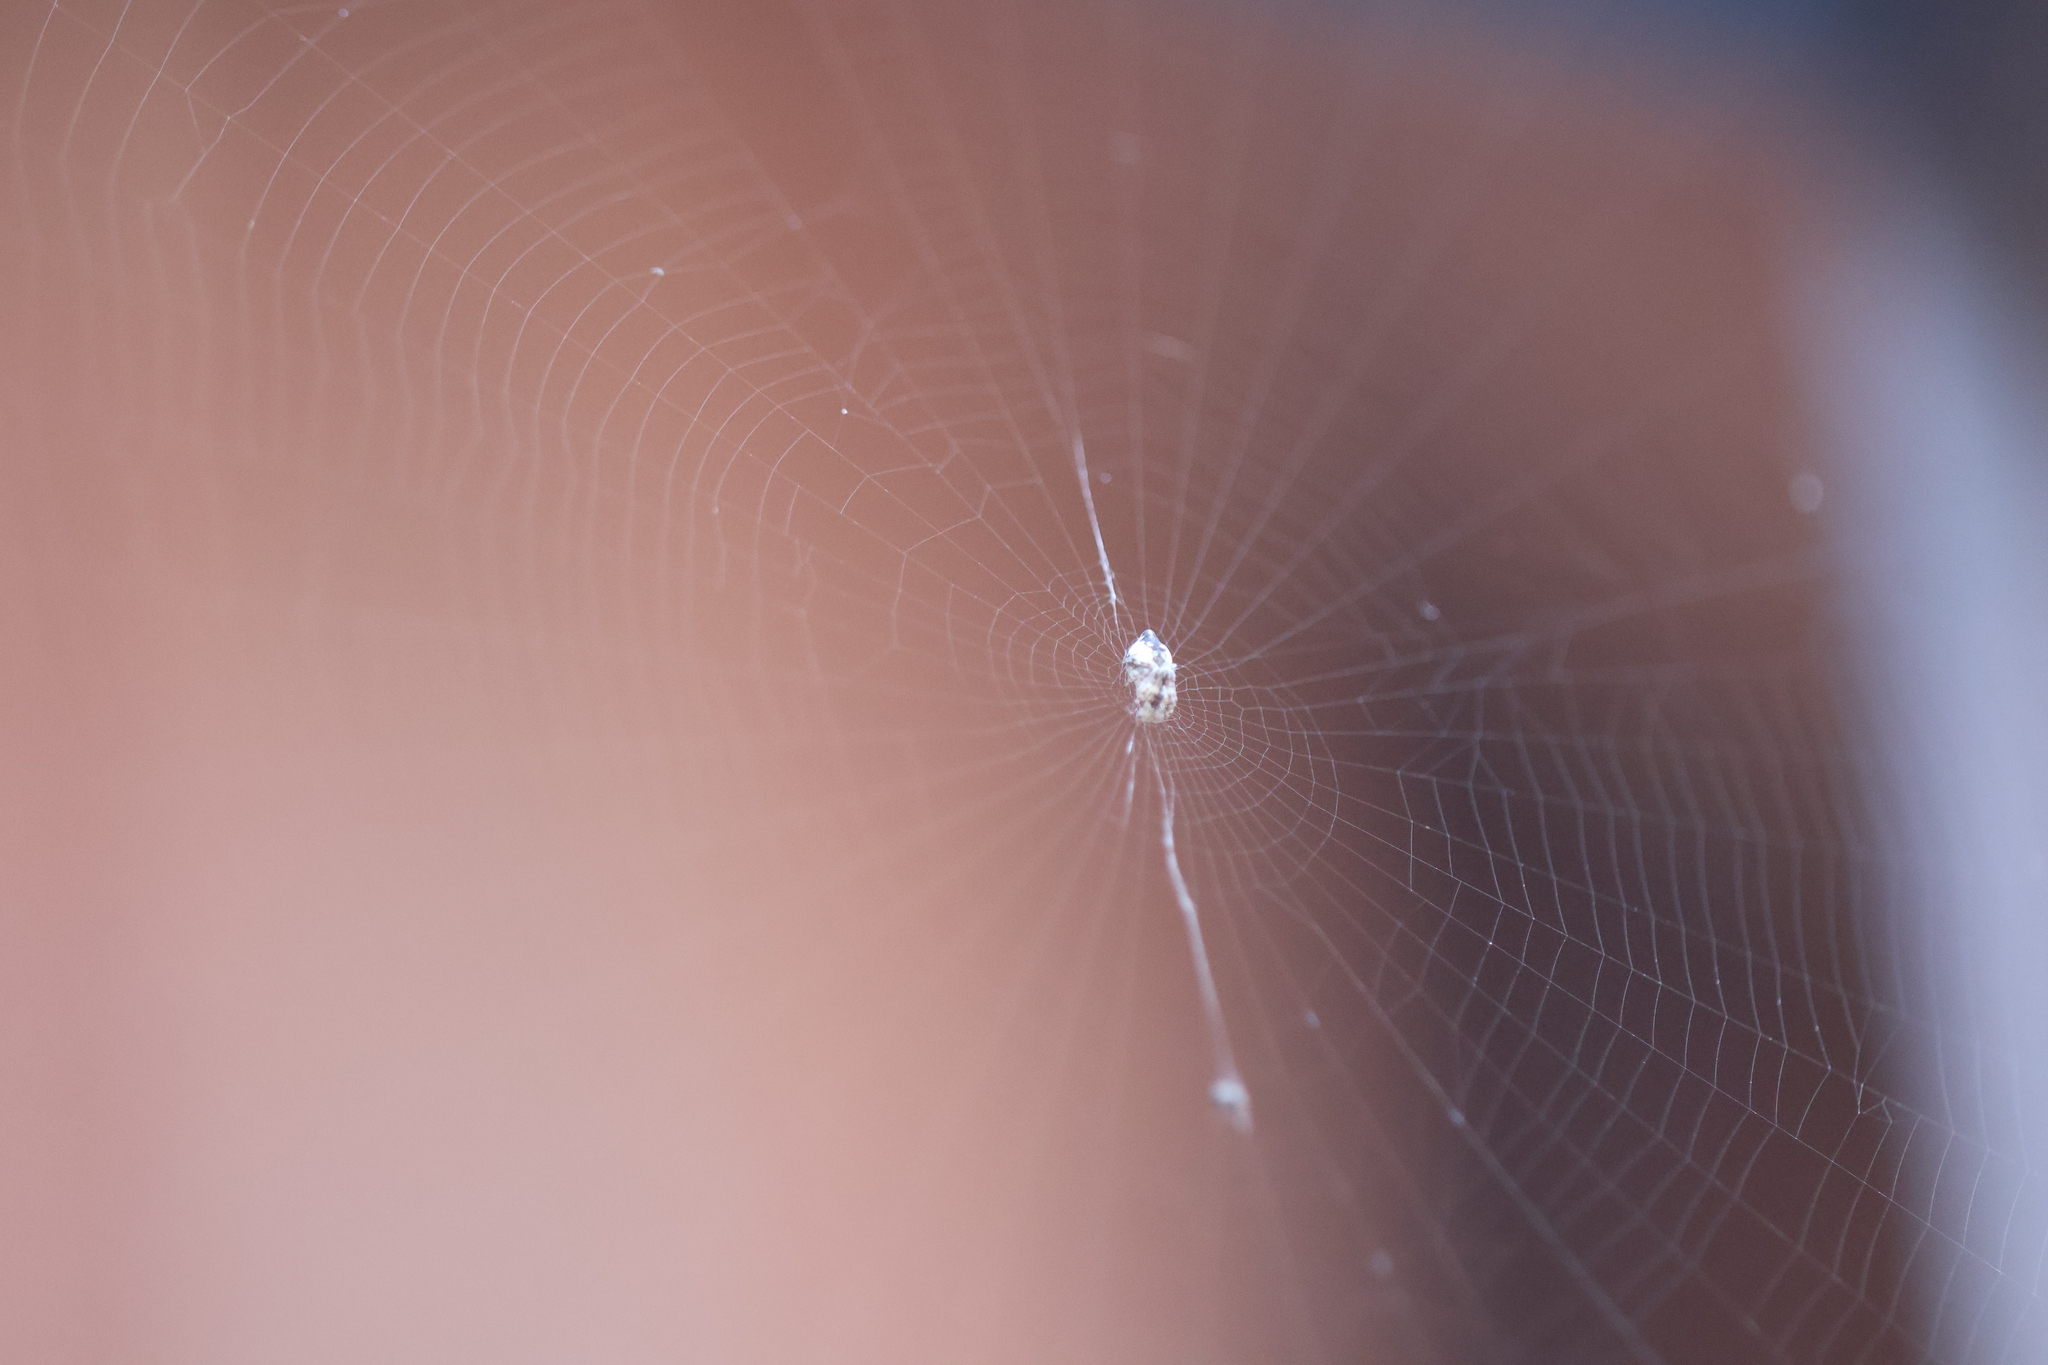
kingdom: Animalia
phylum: Arthropoda
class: Arachnida
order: Araneae
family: Araneidae
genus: Cyclosa
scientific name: Cyclosa conica
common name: Conical trashline orbweaver
